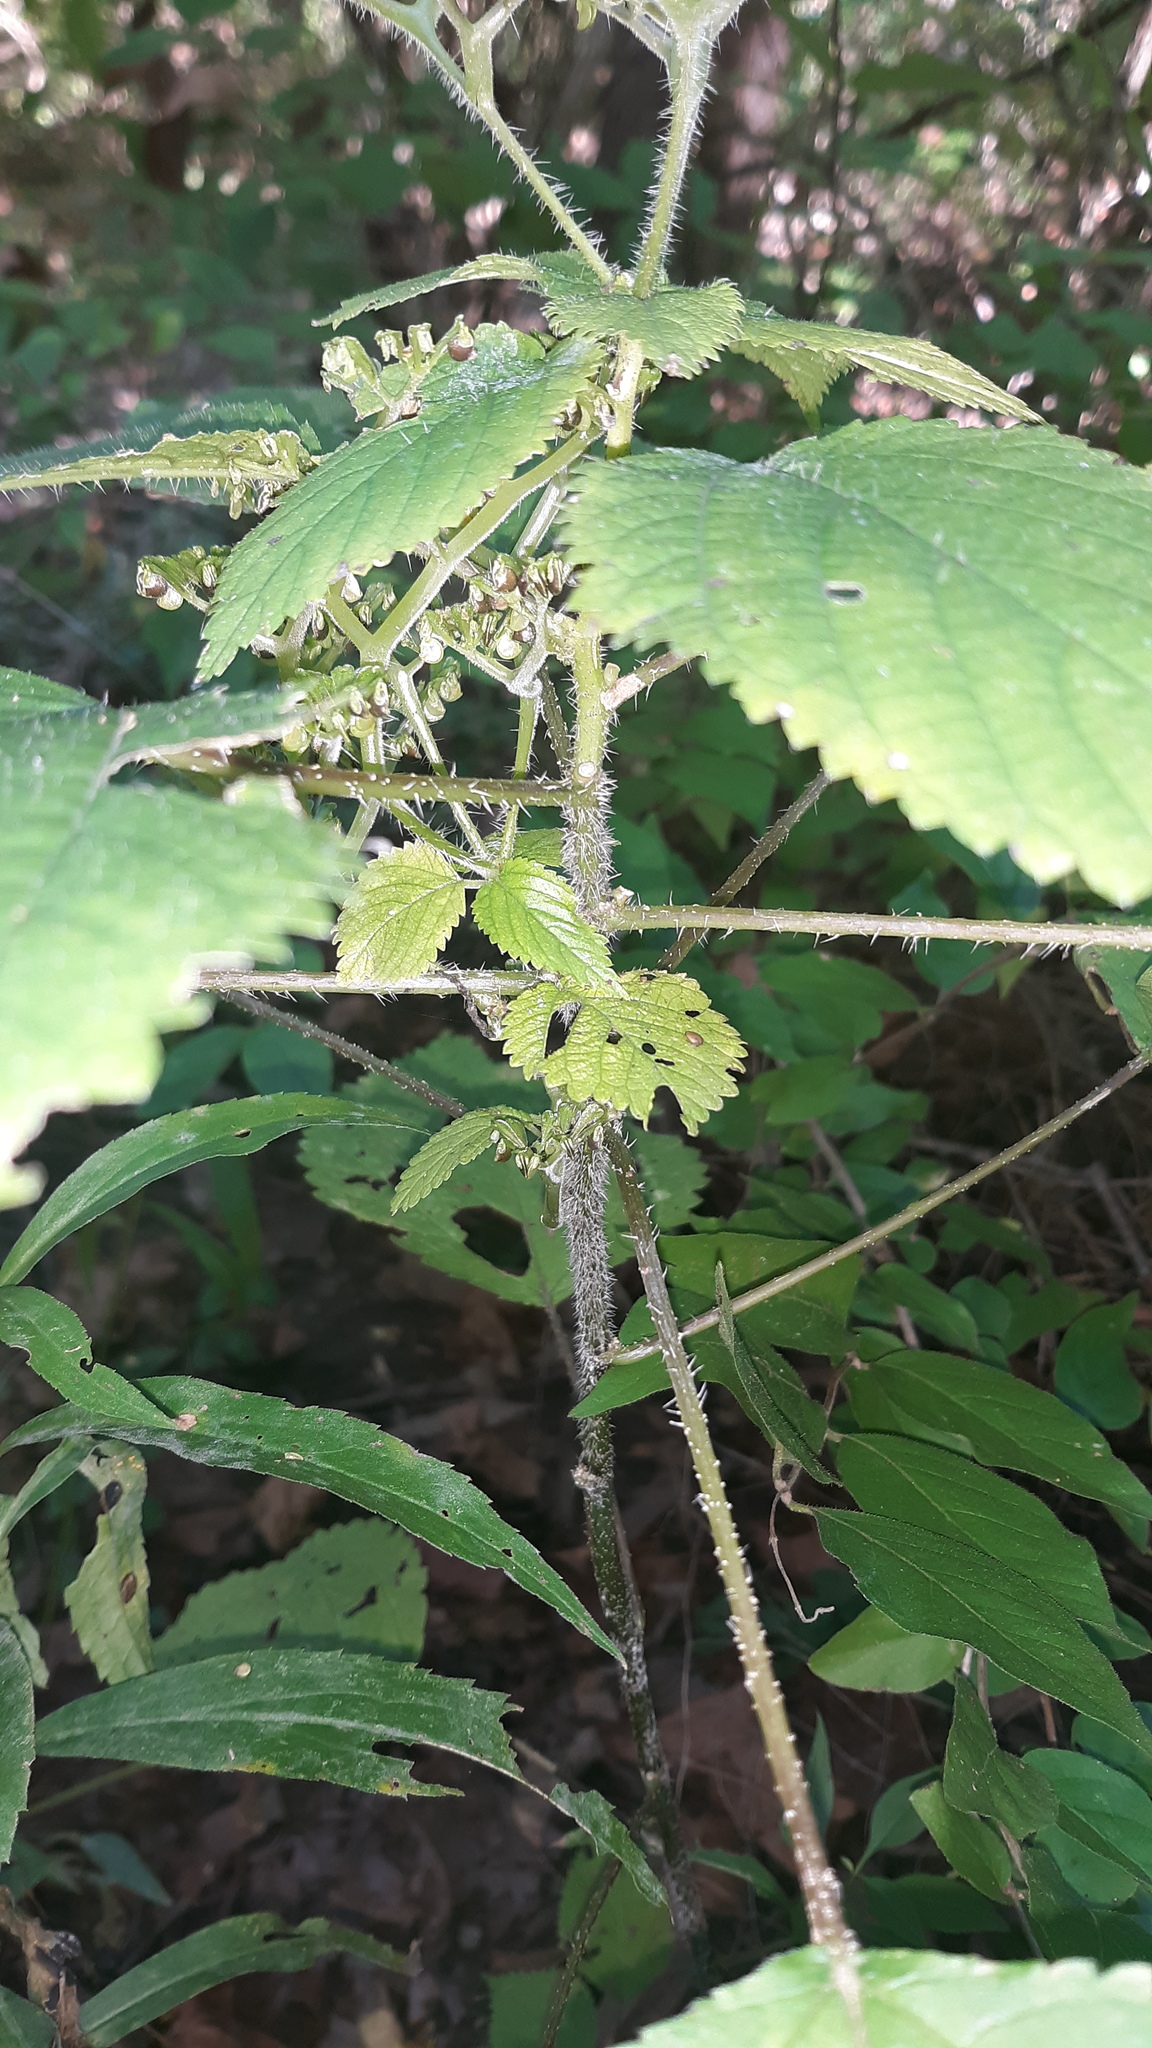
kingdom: Plantae
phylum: Tracheophyta
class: Magnoliopsida
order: Rosales
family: Urticaceae
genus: Laportea
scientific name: Laportea canadensis
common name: Canada nettle
